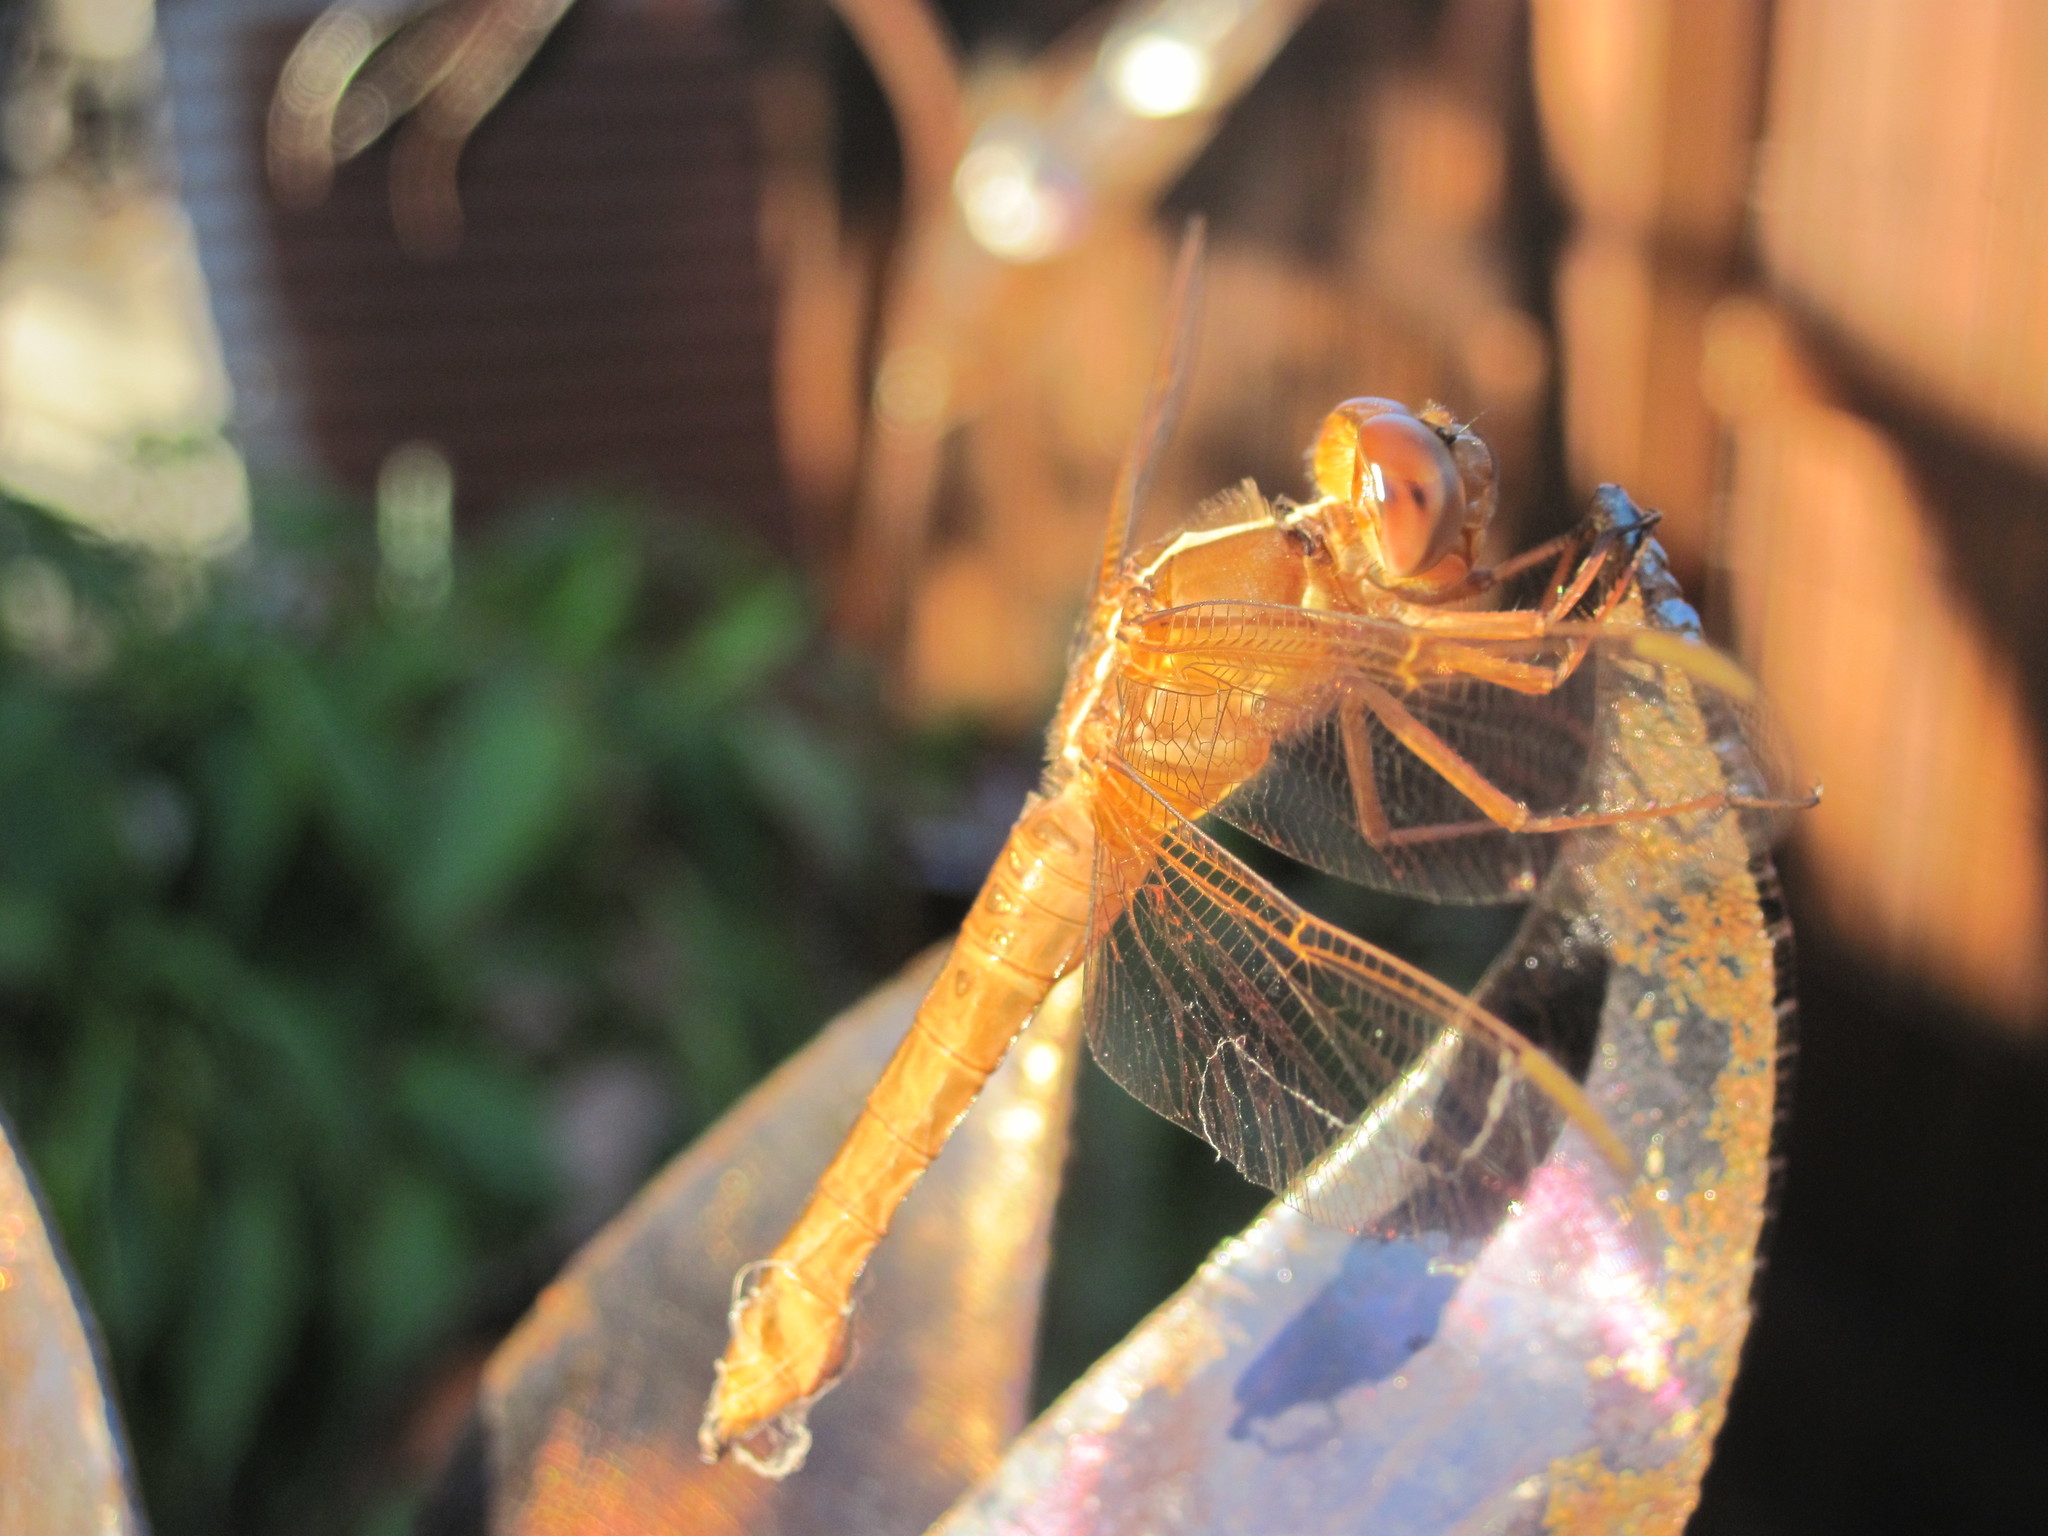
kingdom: Animalia
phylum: Arthropoda
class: Insecta
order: Odonata
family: Libellulidae
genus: Libellula
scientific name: Libellula croceipennis
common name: Neon skimmer
